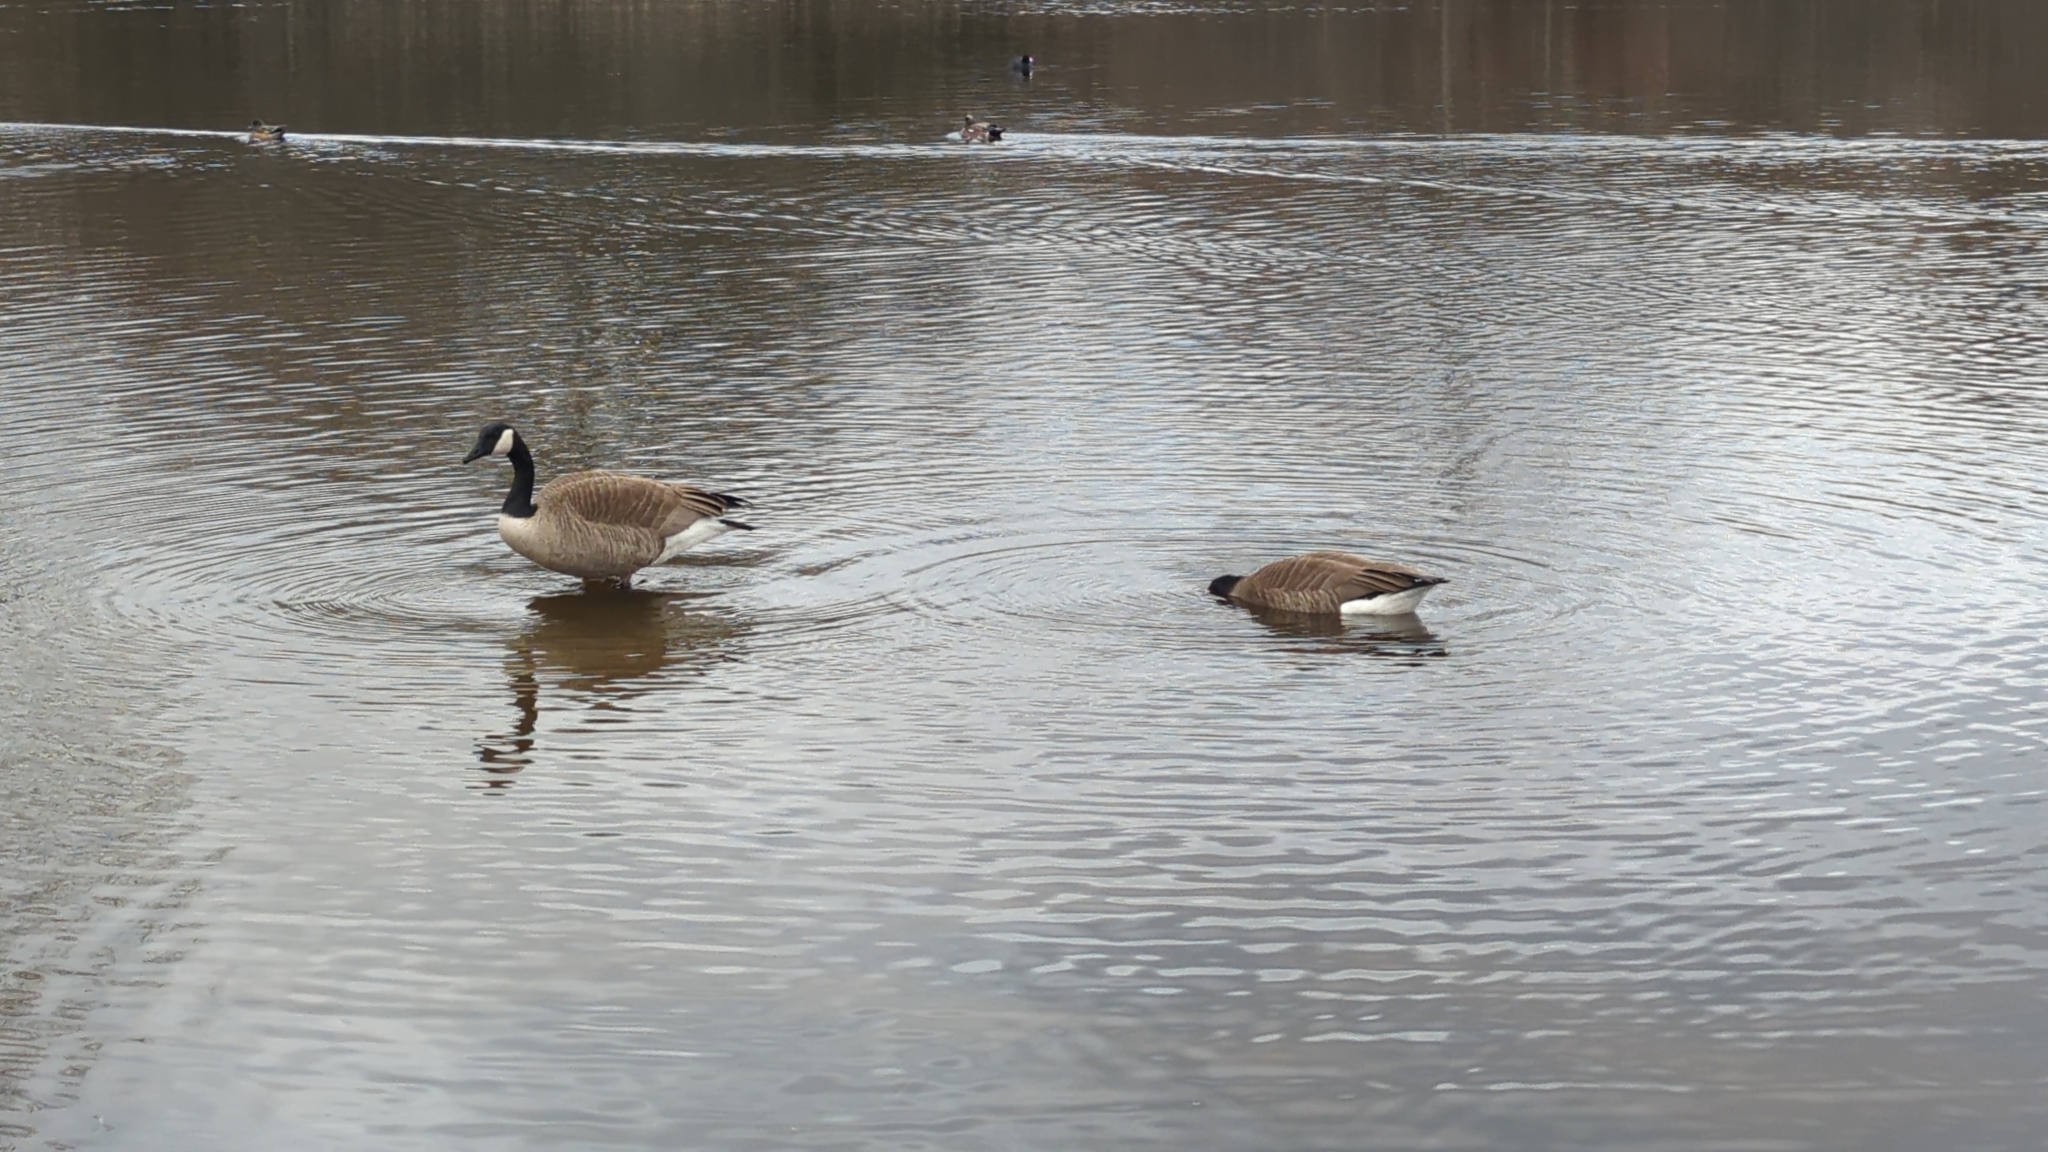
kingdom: Animalia
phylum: Chordata
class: Aves
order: Anseriformes
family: Anatidae
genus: Branta
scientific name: Branta canadensis
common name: Canada goose
